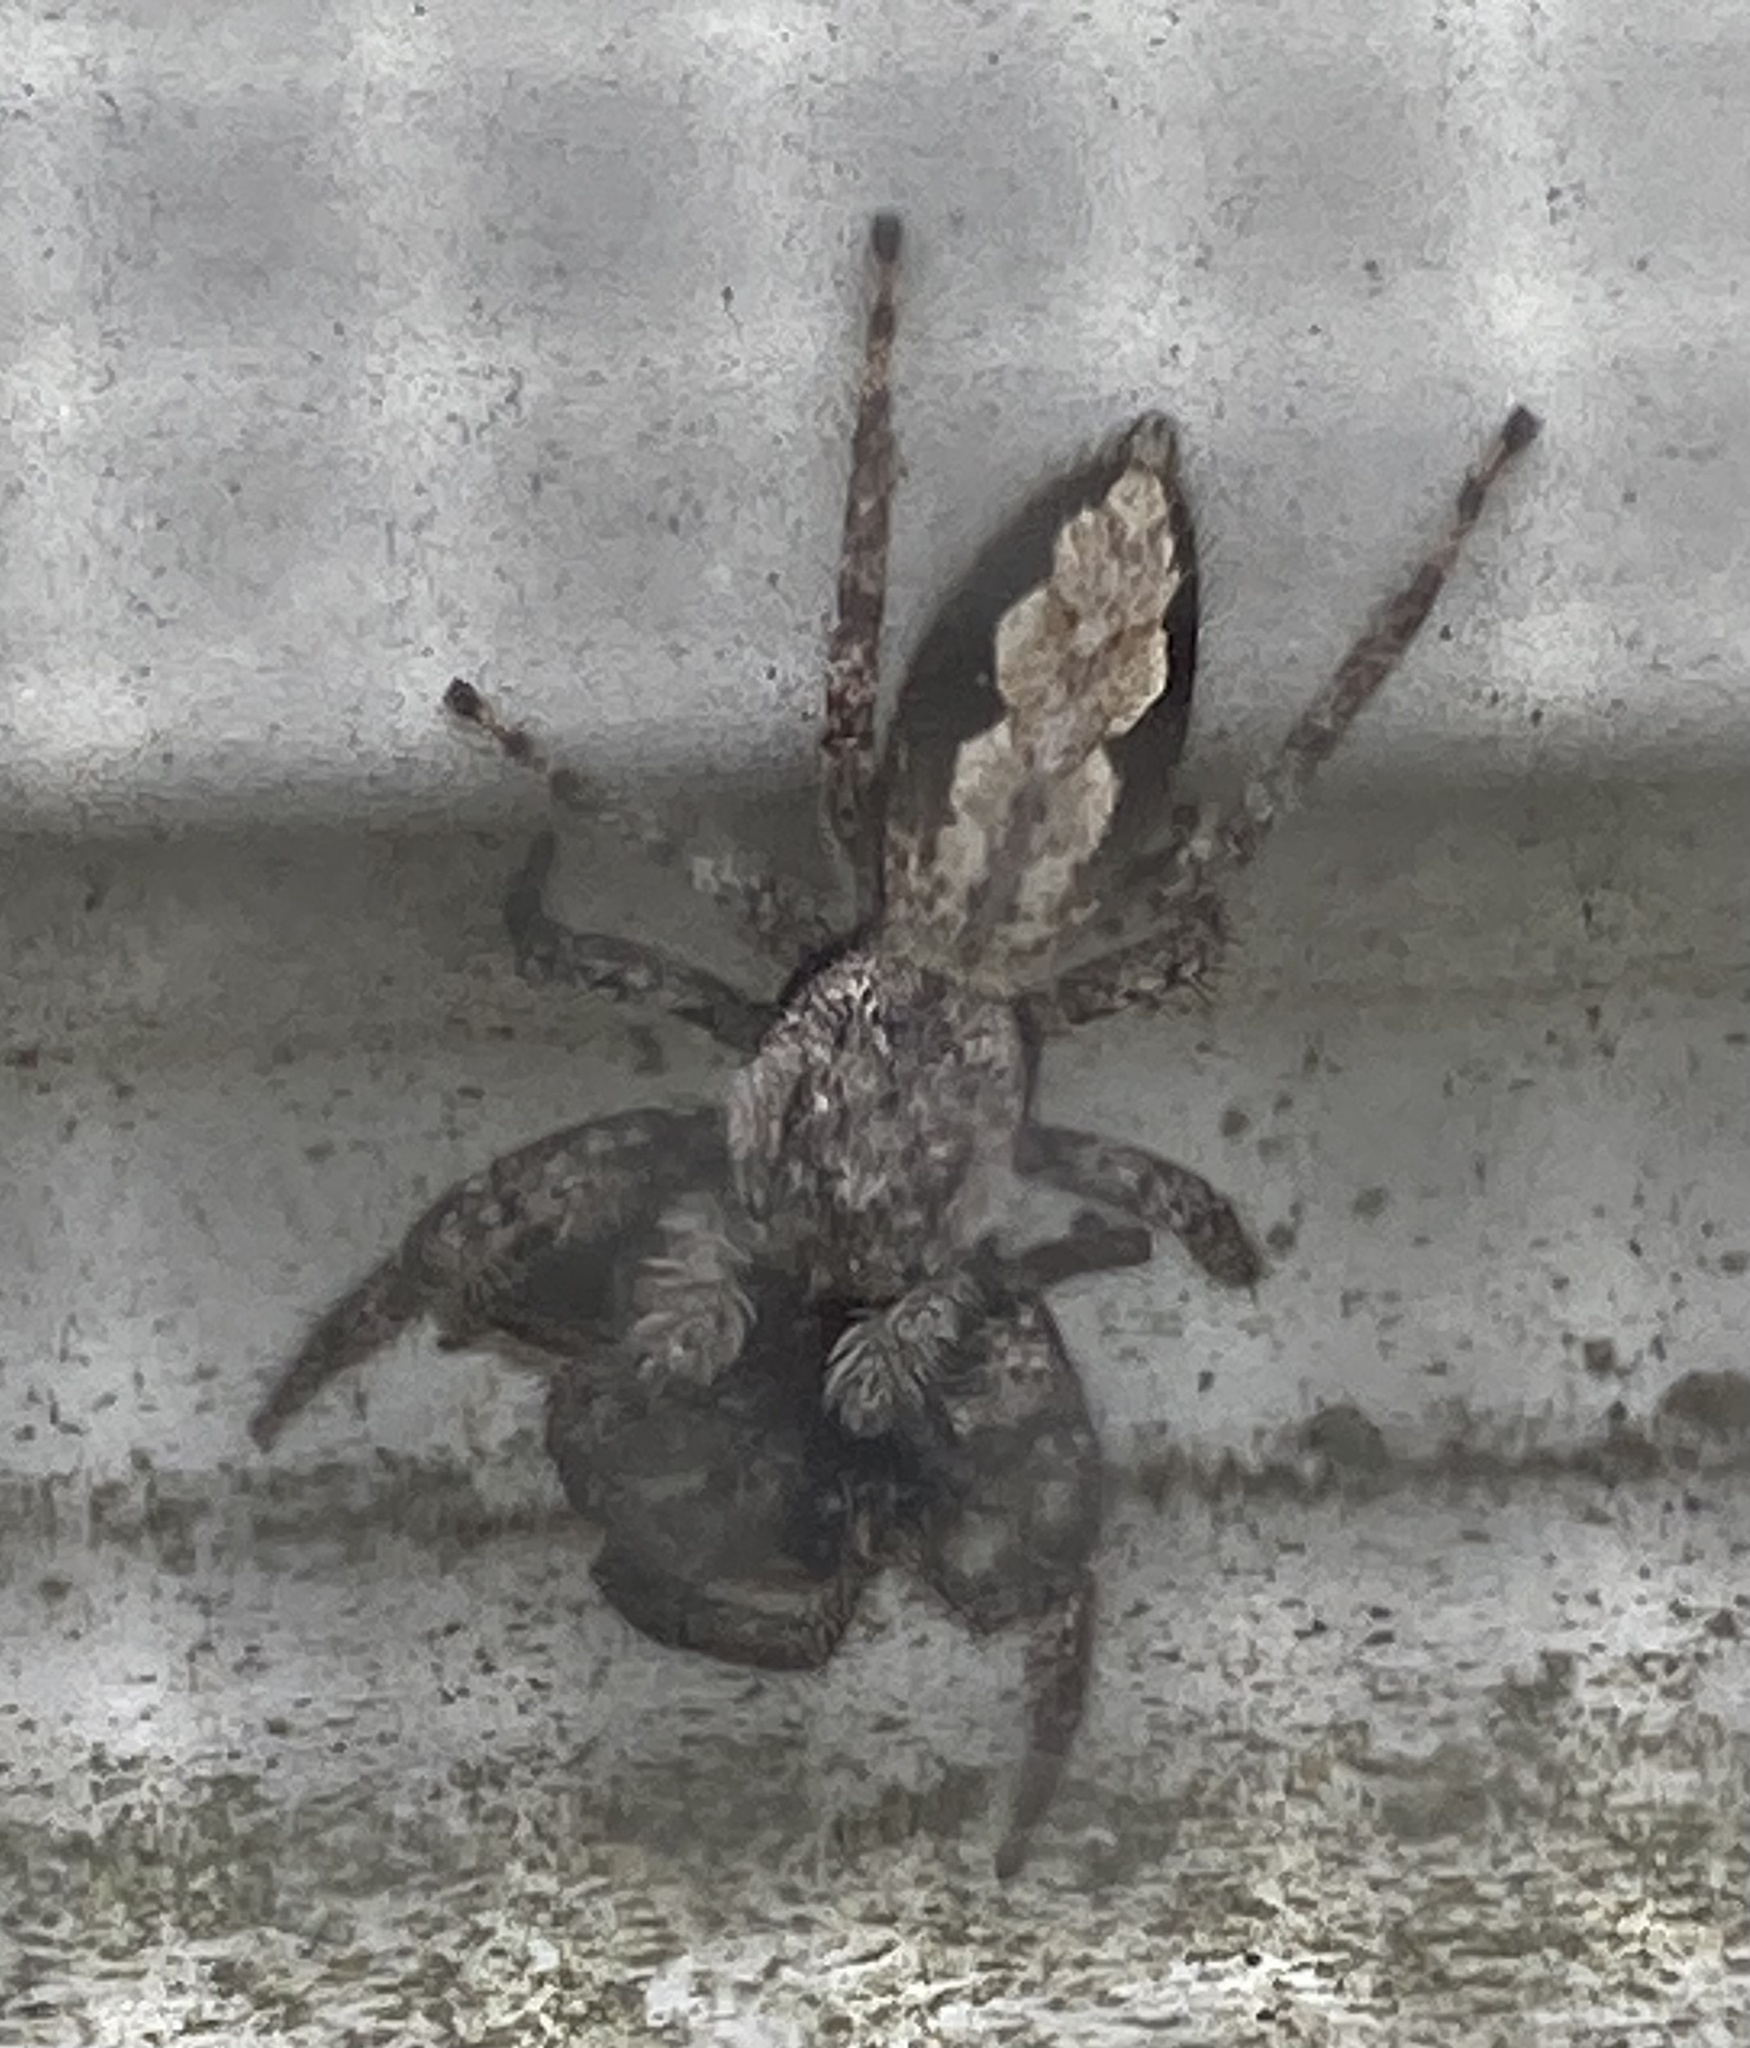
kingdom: Animalia
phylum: Arthropoda
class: Arachnida
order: Araneae
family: Salticidae
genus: Platycryptus
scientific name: Platycryptus undatus
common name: Tan jumping spider
